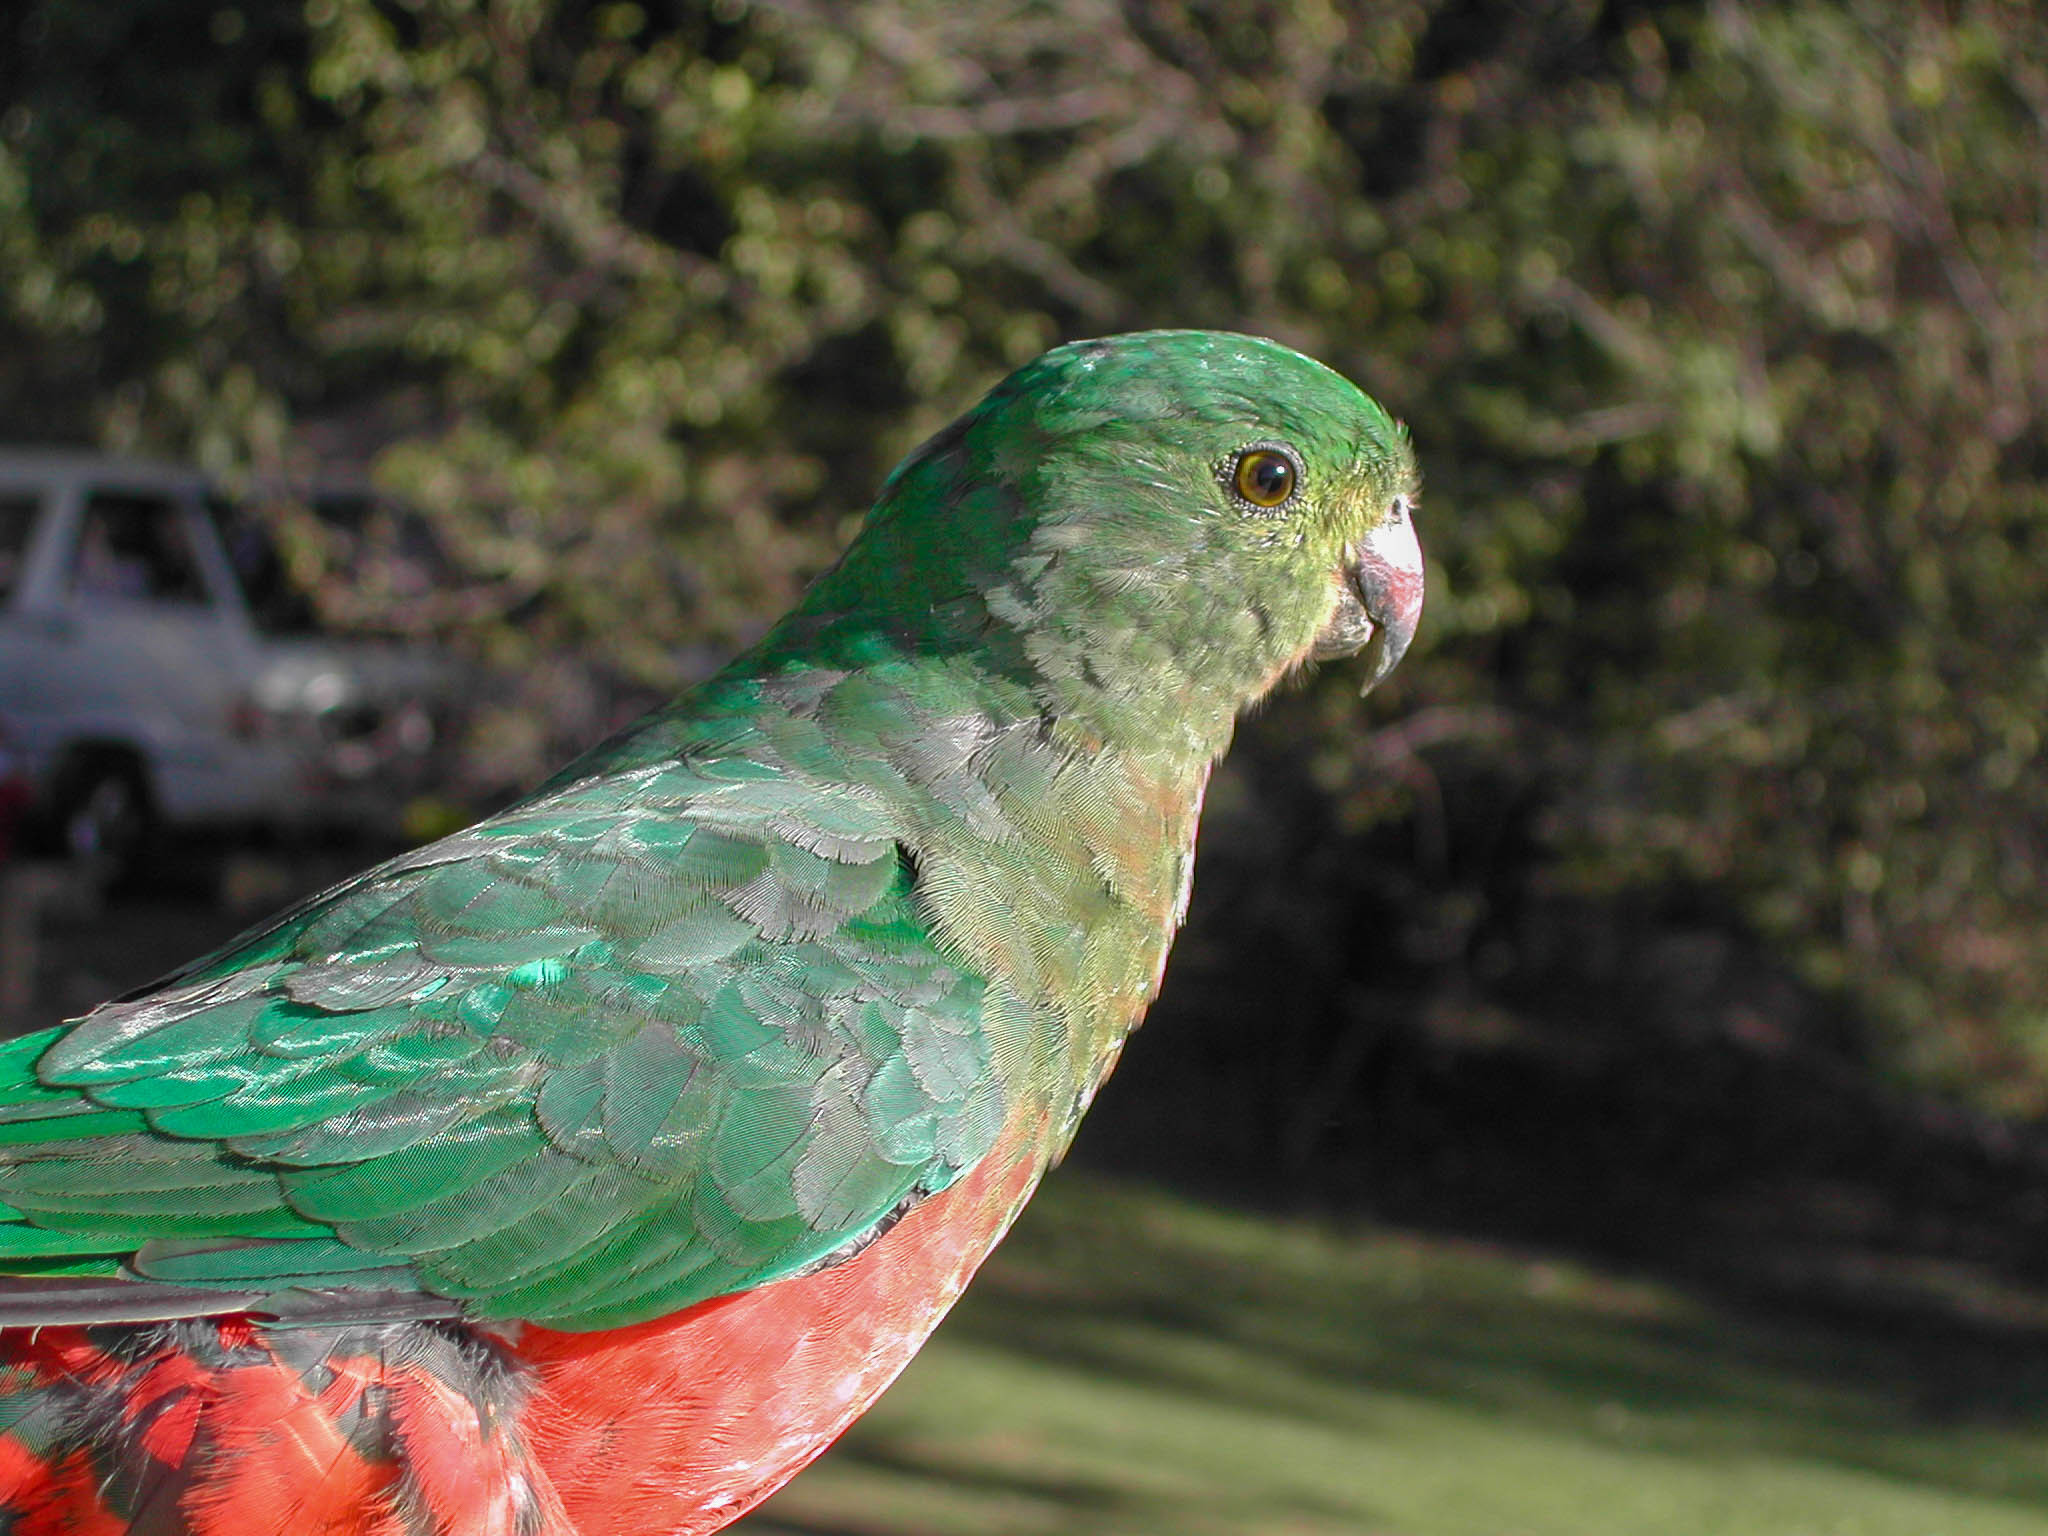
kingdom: Animalia
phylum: Chordata
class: Aves
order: Psittaciformes
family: Psittacidae
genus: Alisterus
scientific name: Alisterus scapularis
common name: Australian king parrot
